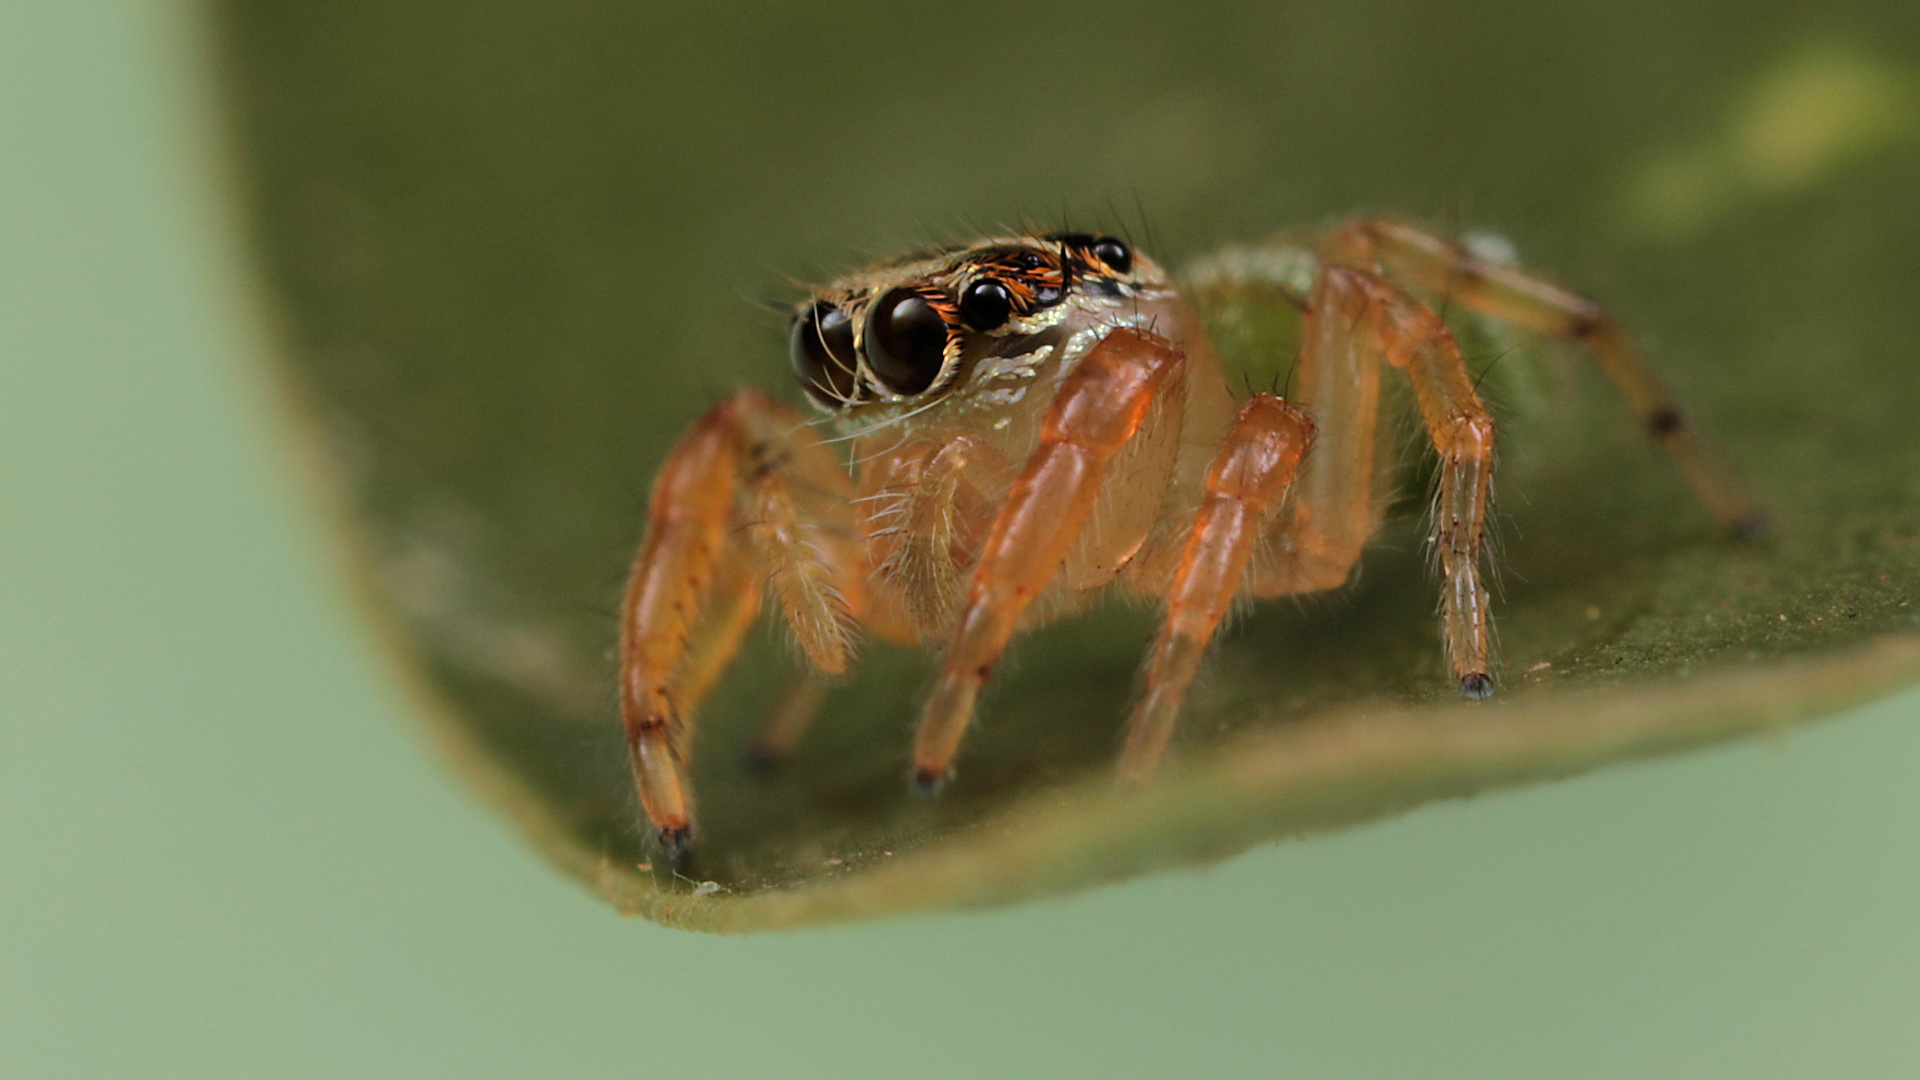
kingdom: Animalia
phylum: Arthropoda
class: Arachnida
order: Araneae
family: Salticidae
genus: Thyene
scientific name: Thyene natalii
